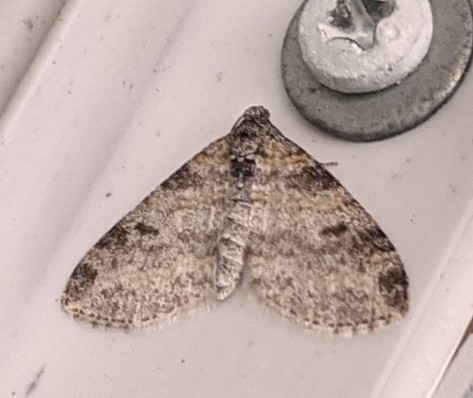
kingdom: Animalia
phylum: Arthropoda
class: Insecta
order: Lepidoptera
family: Geometridae
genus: Lobophora
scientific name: Lobophora nivigerata
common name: Powdered bigwing
